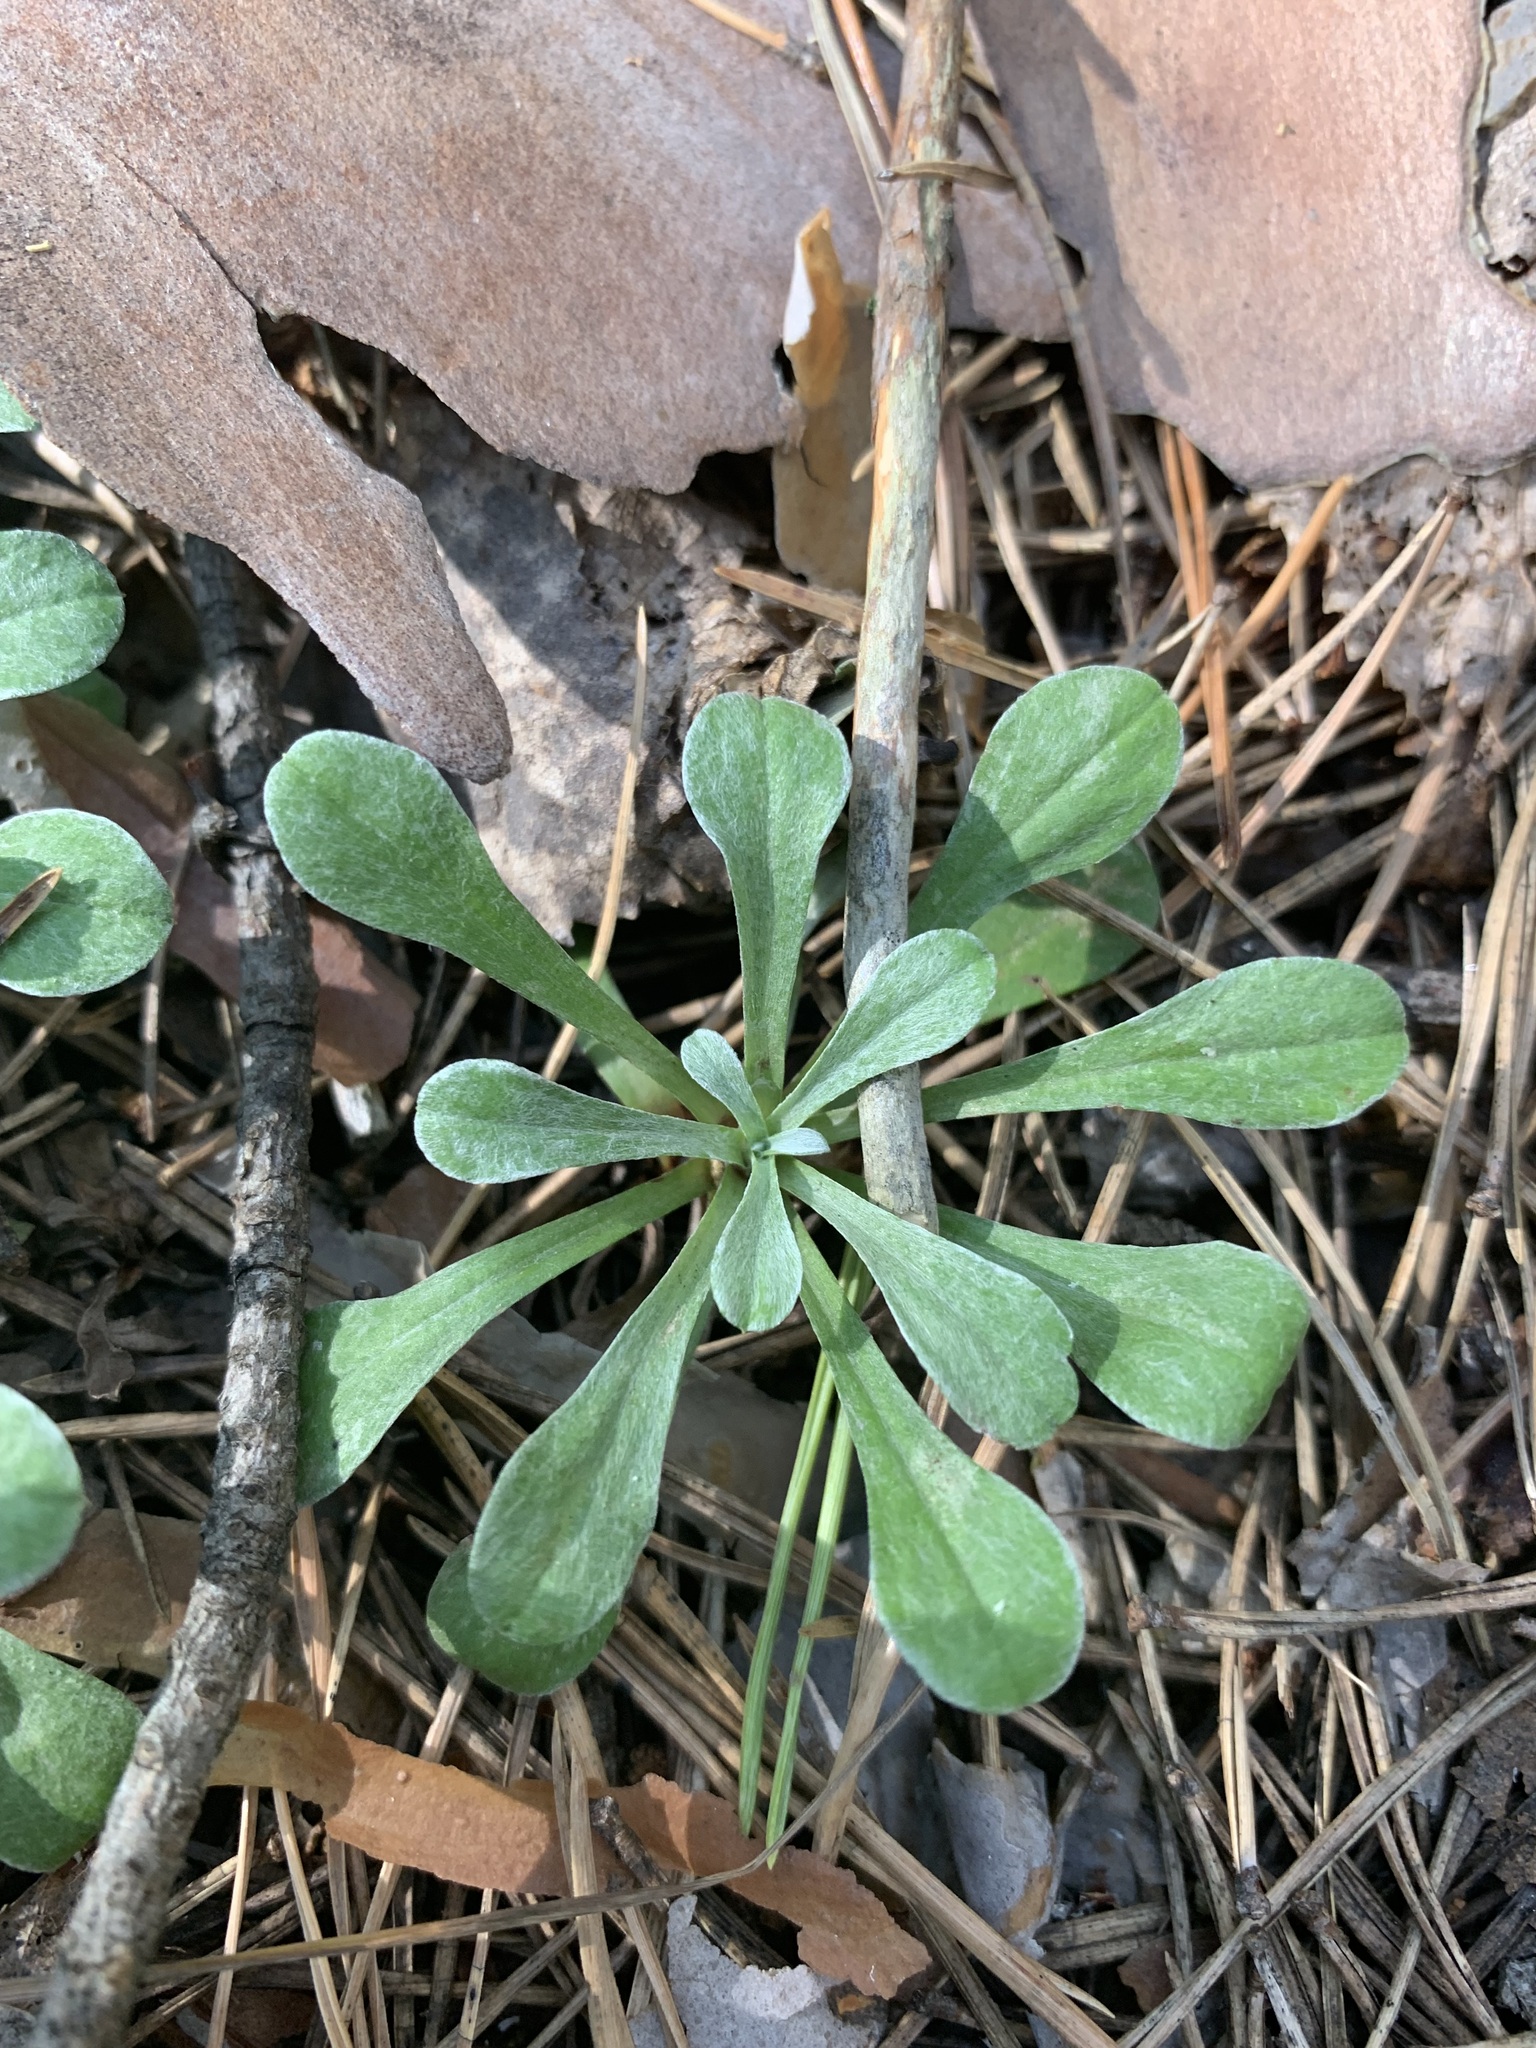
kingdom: Plantae
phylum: Tracheophyta
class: Magnoliopsida
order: Asterales
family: Asteraceae
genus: Antennaria
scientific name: Antennaria dioica
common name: Mountain everlasting
